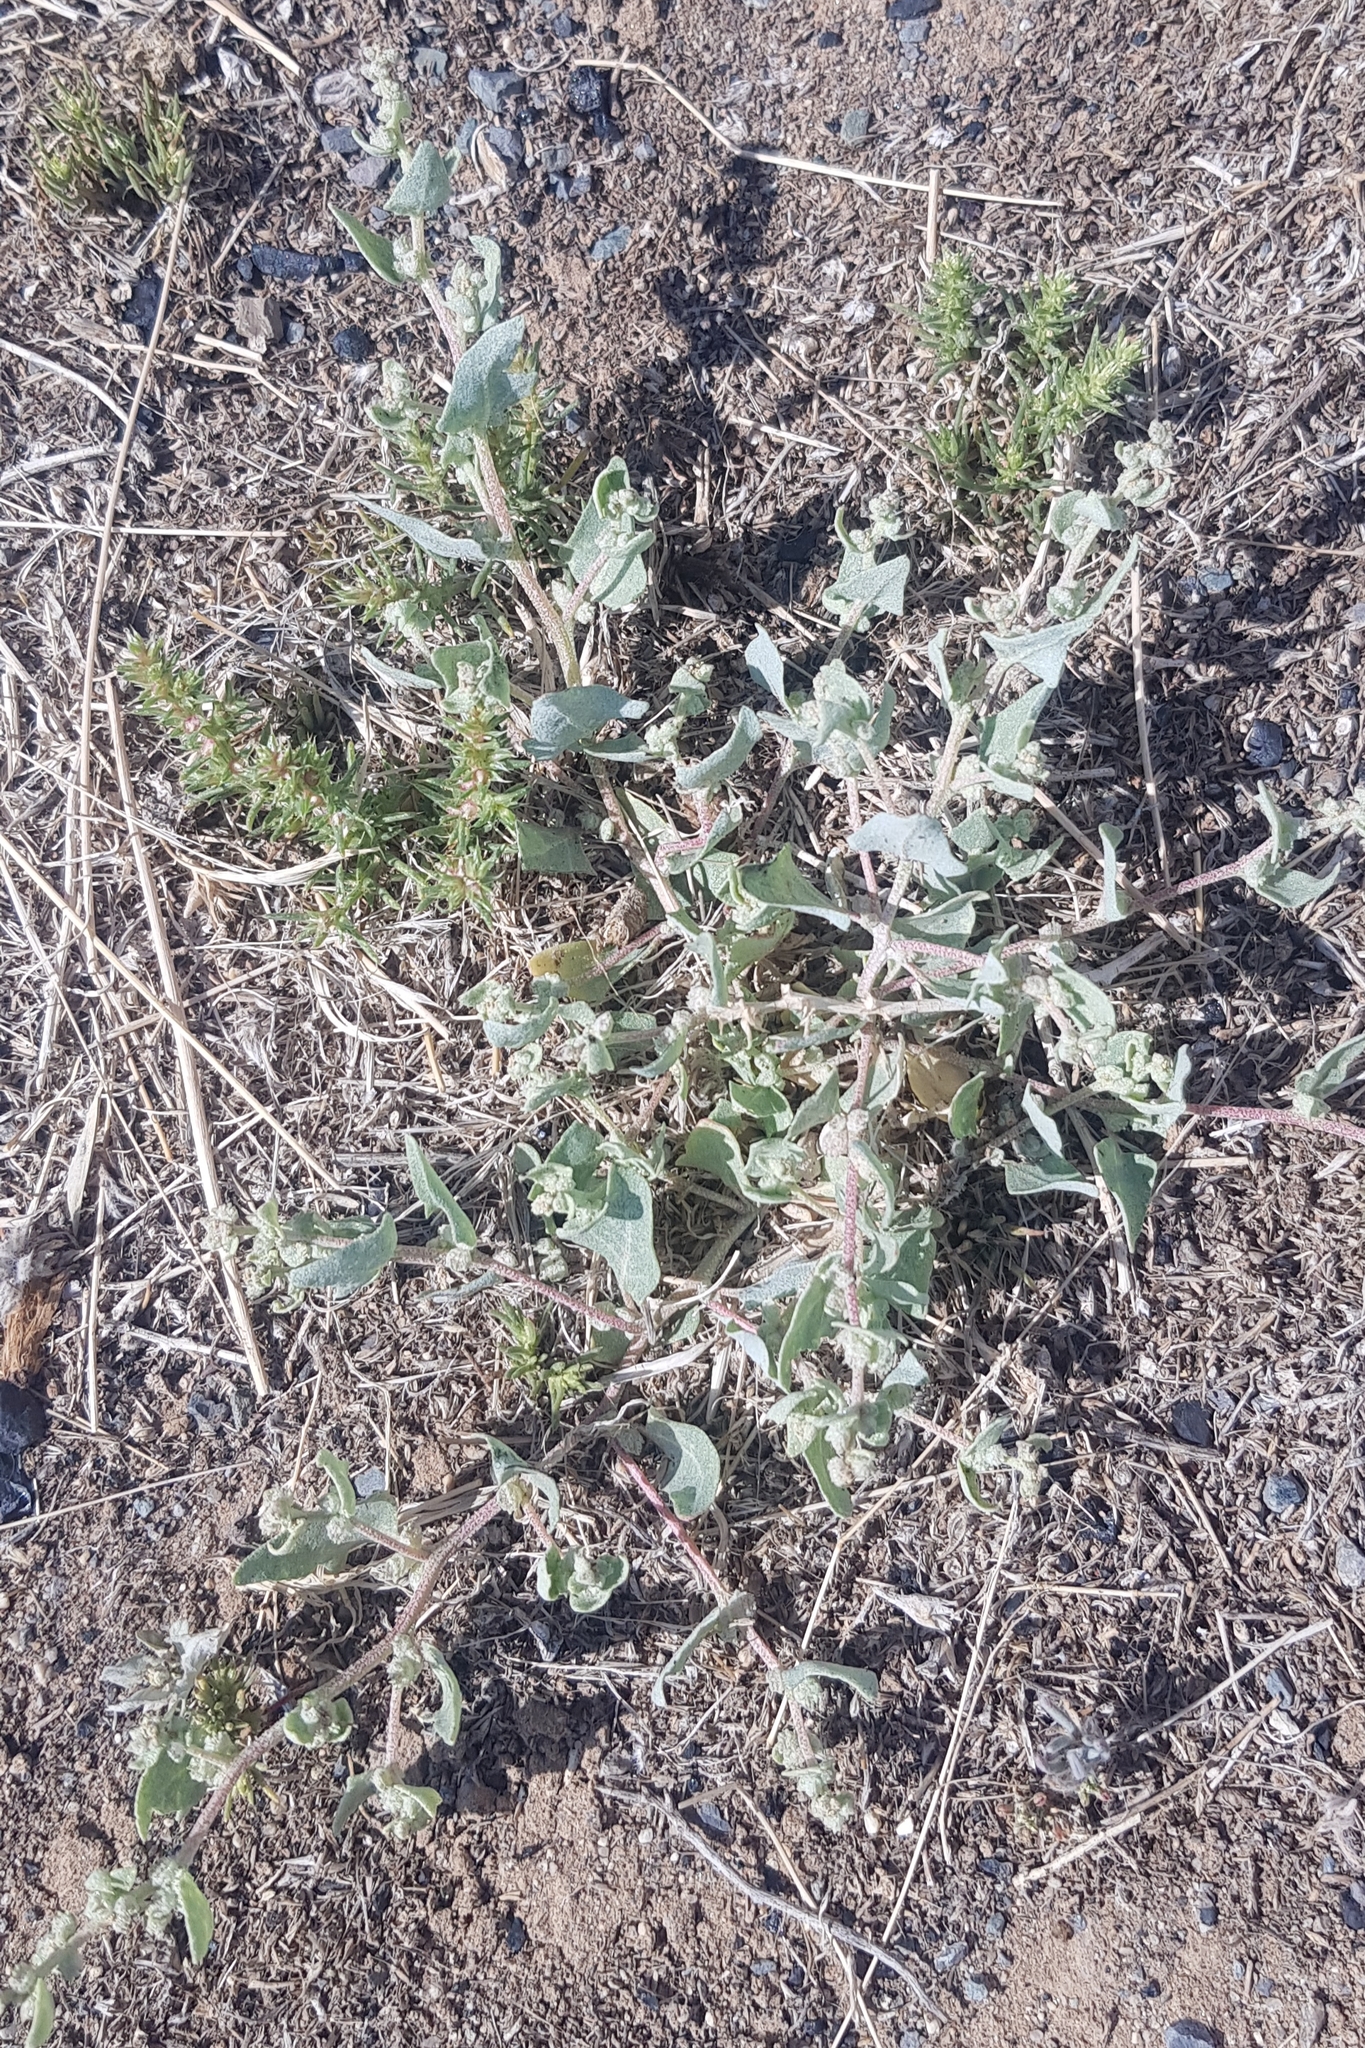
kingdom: Plantae
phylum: Tracheophyta
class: Magnoliopsida
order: Caryophyllales
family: Amaranthaceae
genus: Chenopodium
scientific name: Chenopodium karoi
